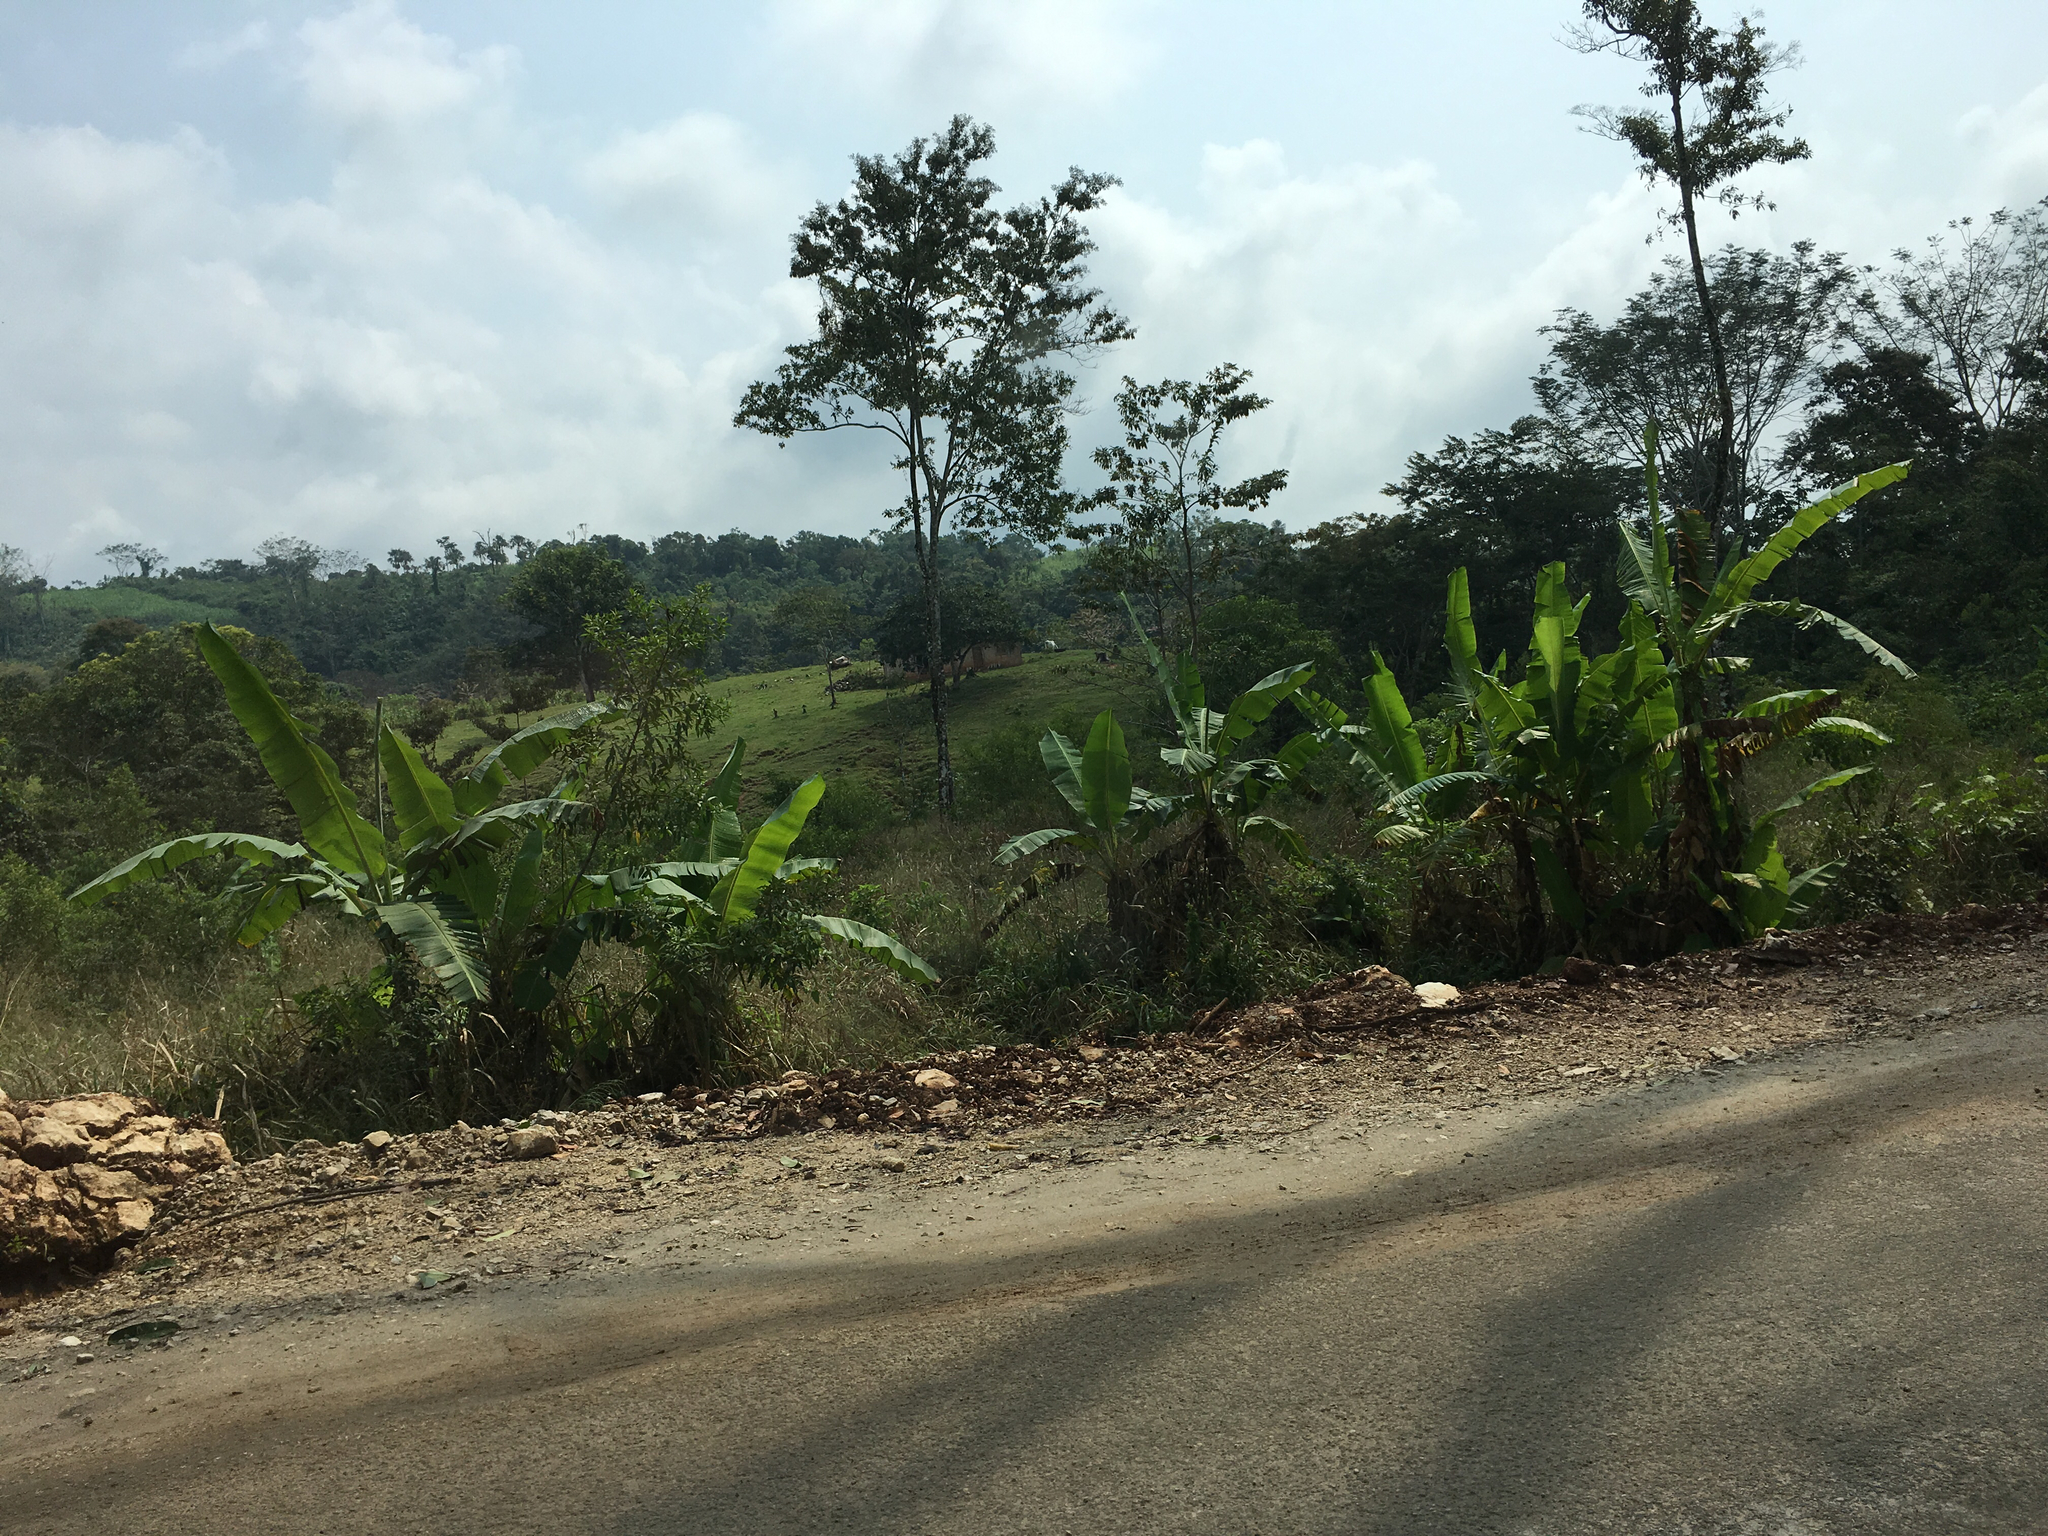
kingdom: Plantae
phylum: Tracheophyta
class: Liliopsida
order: Zingiberales
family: Musaceae
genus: Musa
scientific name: Musa paradisiaca
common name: French plantain
